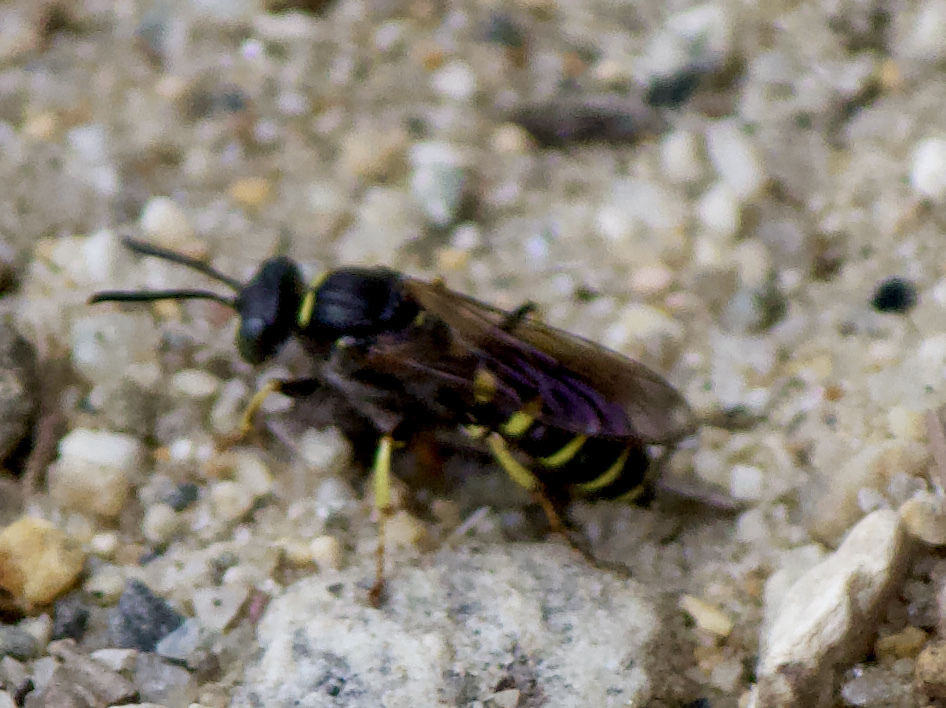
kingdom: Animalia
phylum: Arthropoda
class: Insecta
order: Hymenoptera
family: Crabronidae
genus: Aphilanthops
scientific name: Aphilanthops frigidus
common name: Queen ant kidnapper
